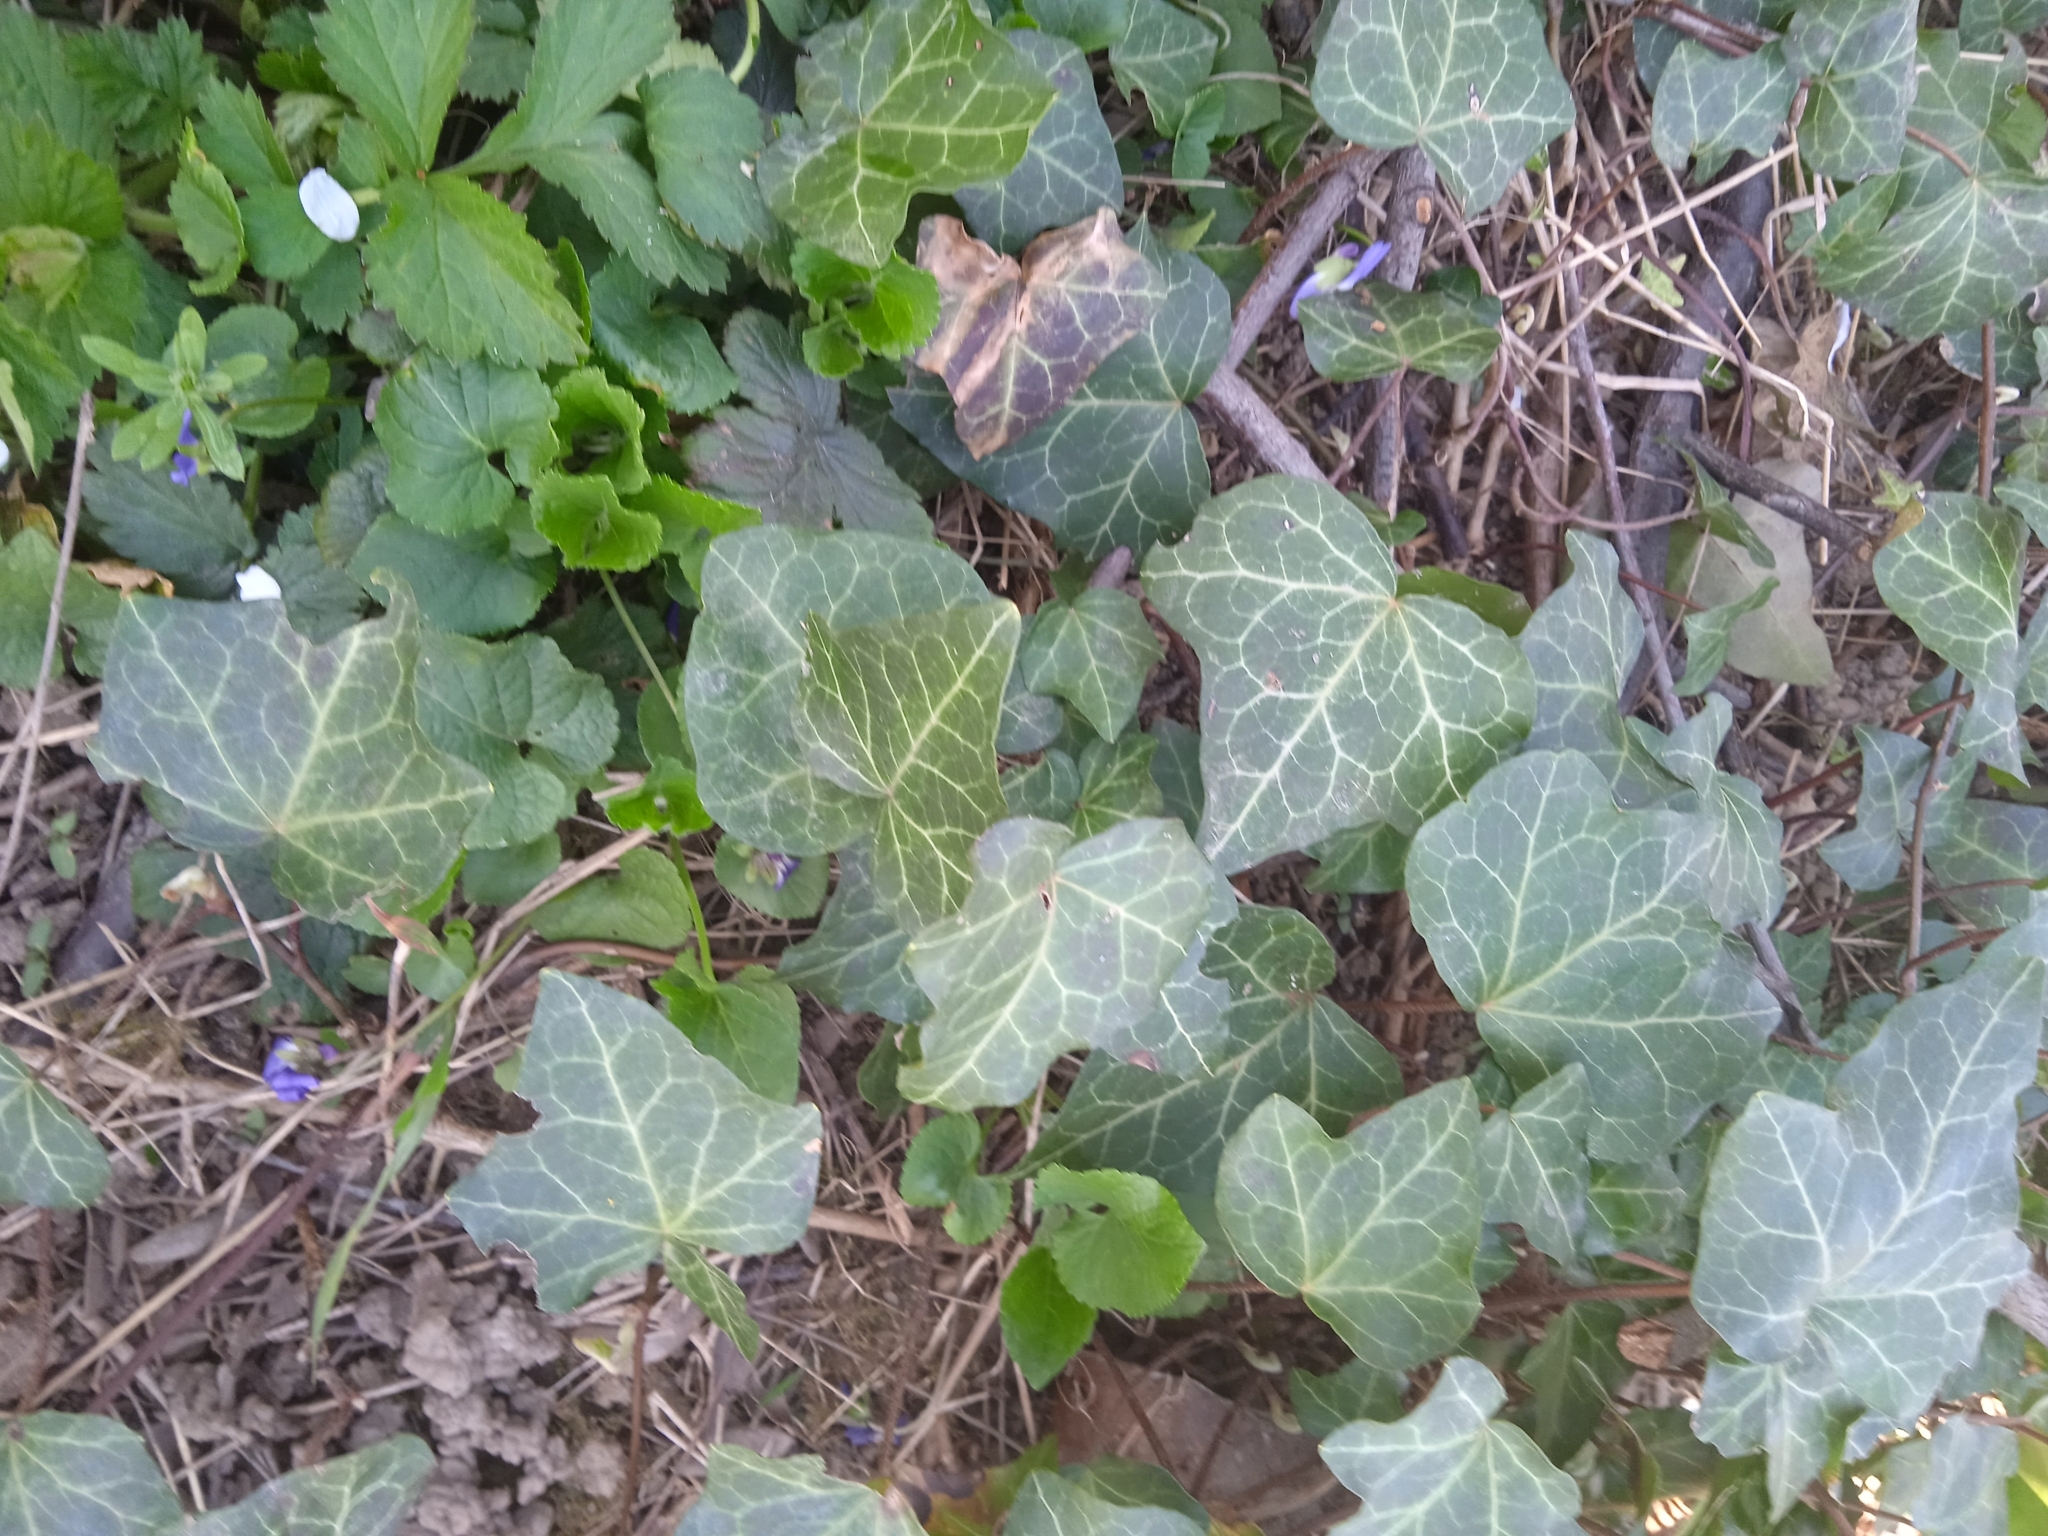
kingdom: Plantae
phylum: Tracheophyta
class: Magnoliopsida
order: Apiales
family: Araliaceae
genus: Hedera
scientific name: Hedera helix
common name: Ivy
